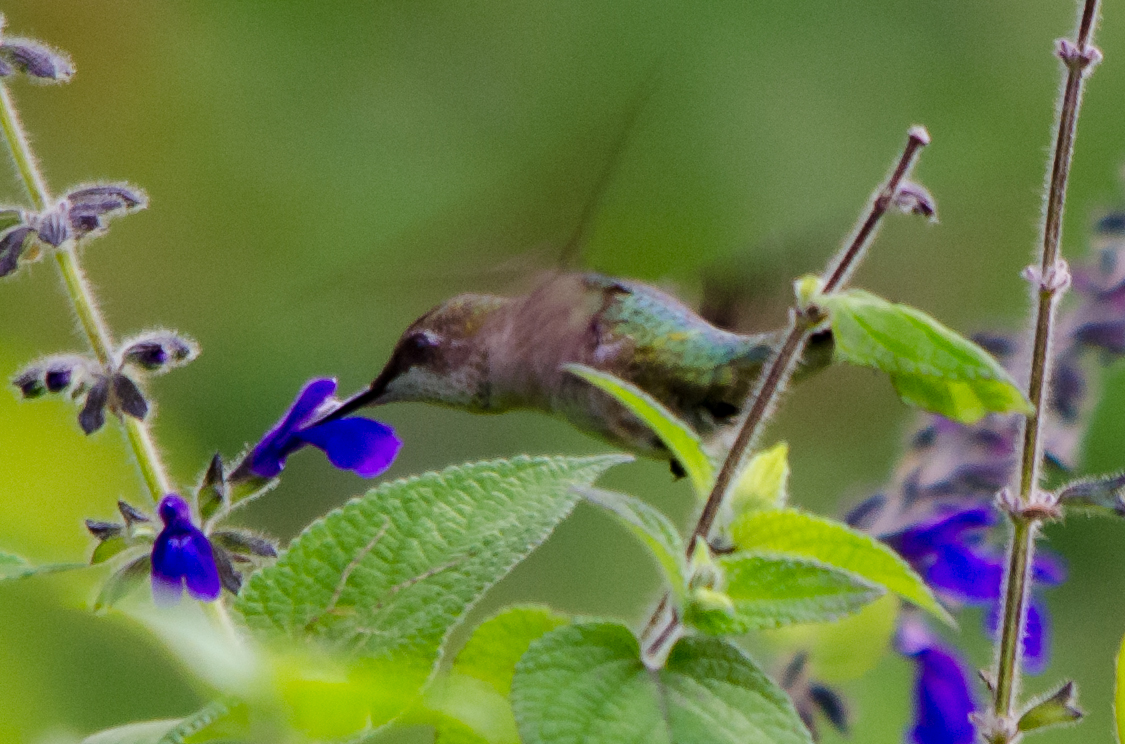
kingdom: Animalia
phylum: Chordata
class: Aves
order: Apodiformes
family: Trochilidae
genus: Archilochus
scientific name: Archilochus colubris
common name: Ruby-throated hummingbird
